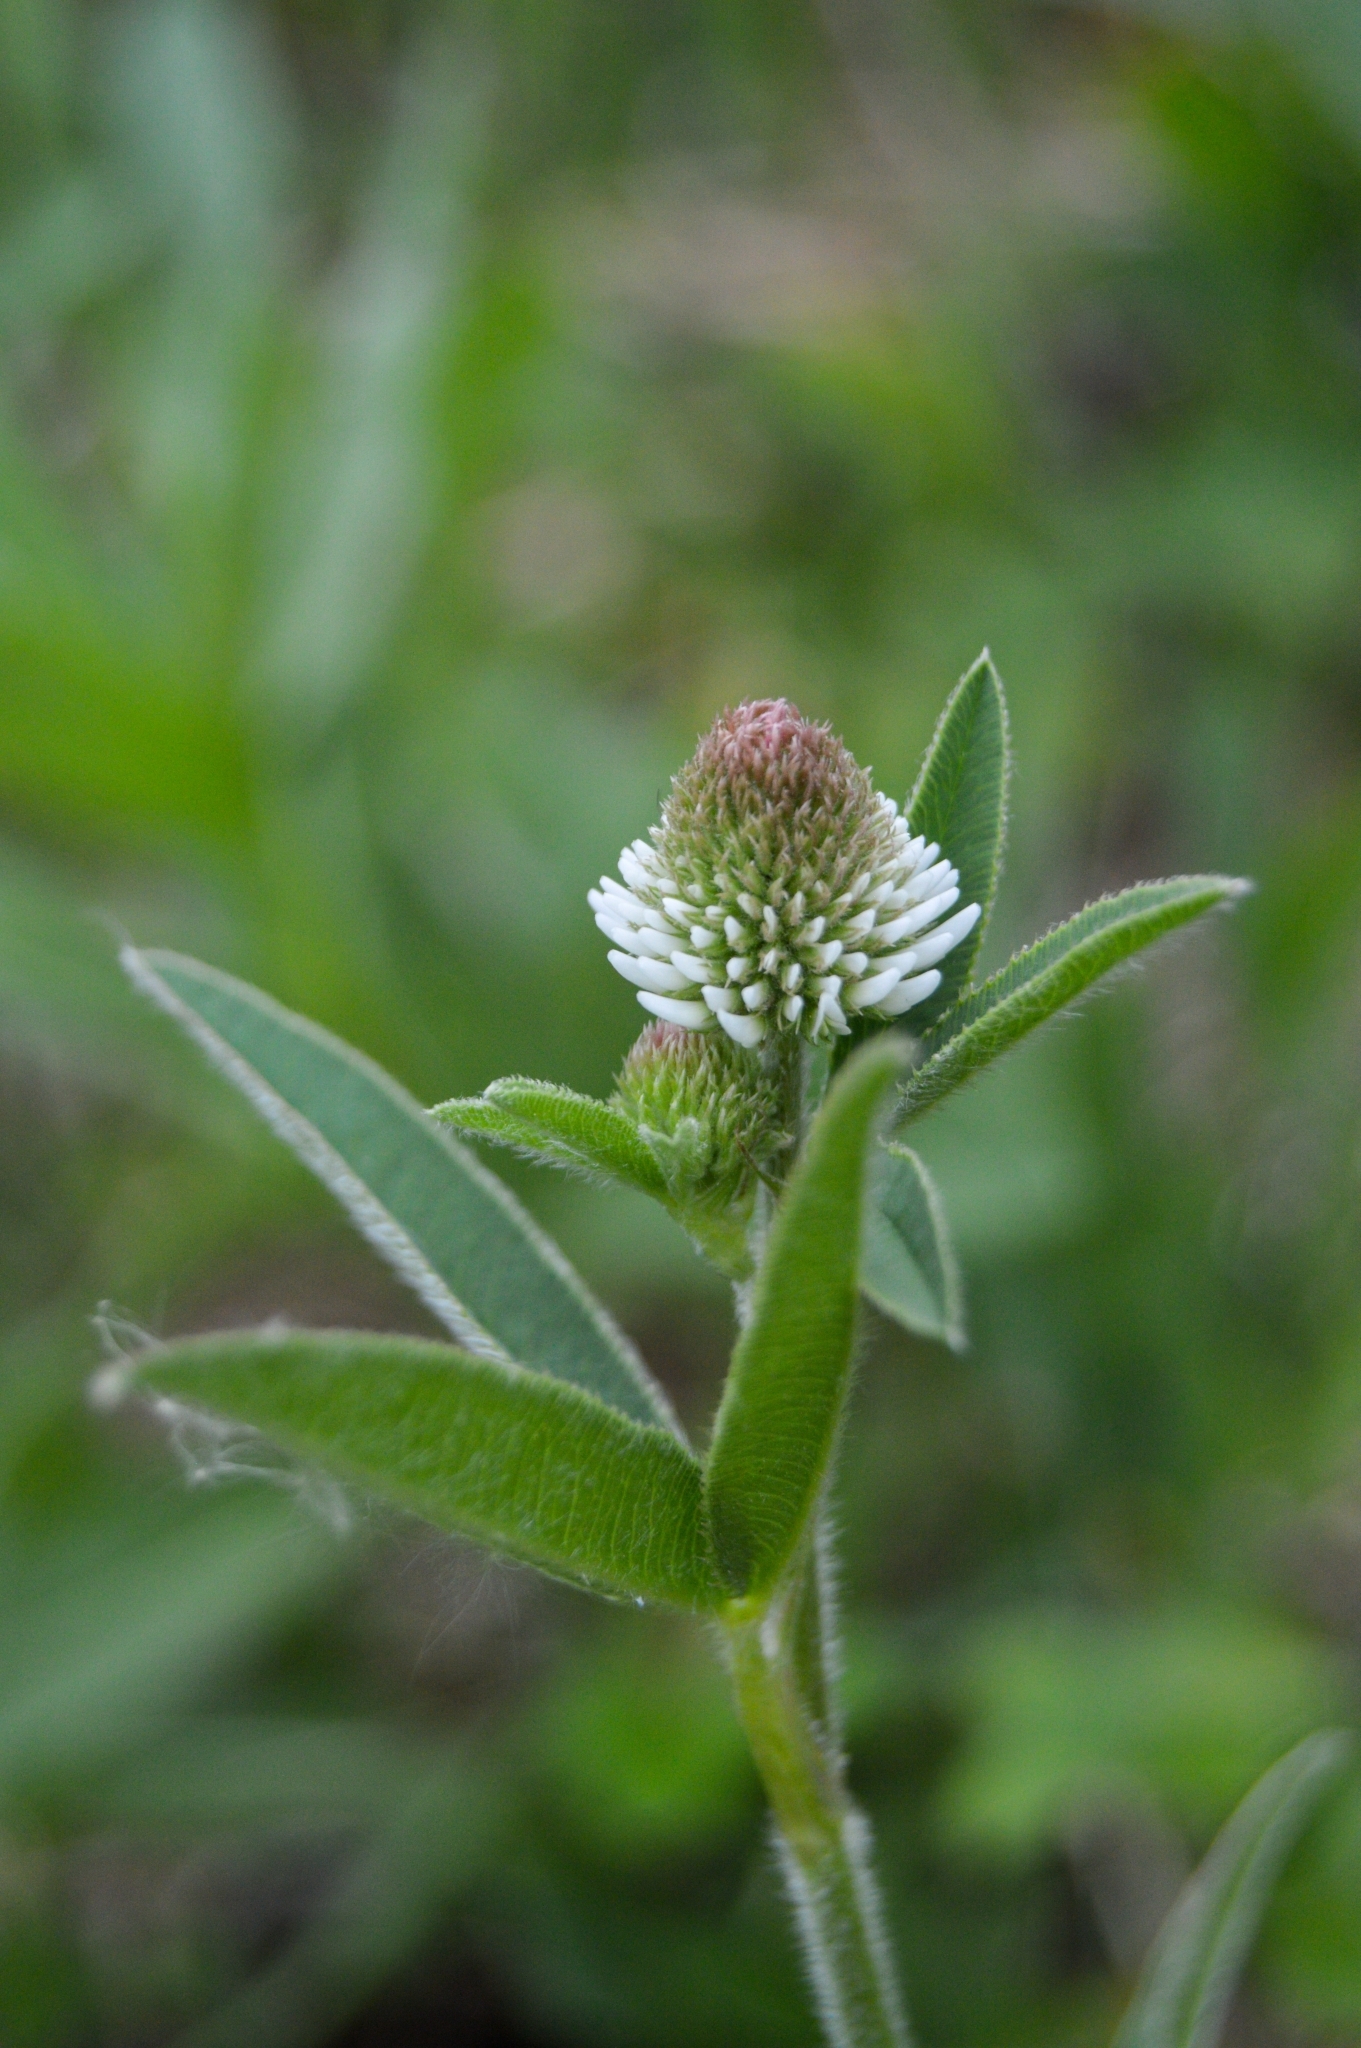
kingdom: Plantae
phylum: Tracheophyta
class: Magnoliopsida
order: Fabales
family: Fabaceae
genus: Trifolium
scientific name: Trifolium montanum
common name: Mountain clover
